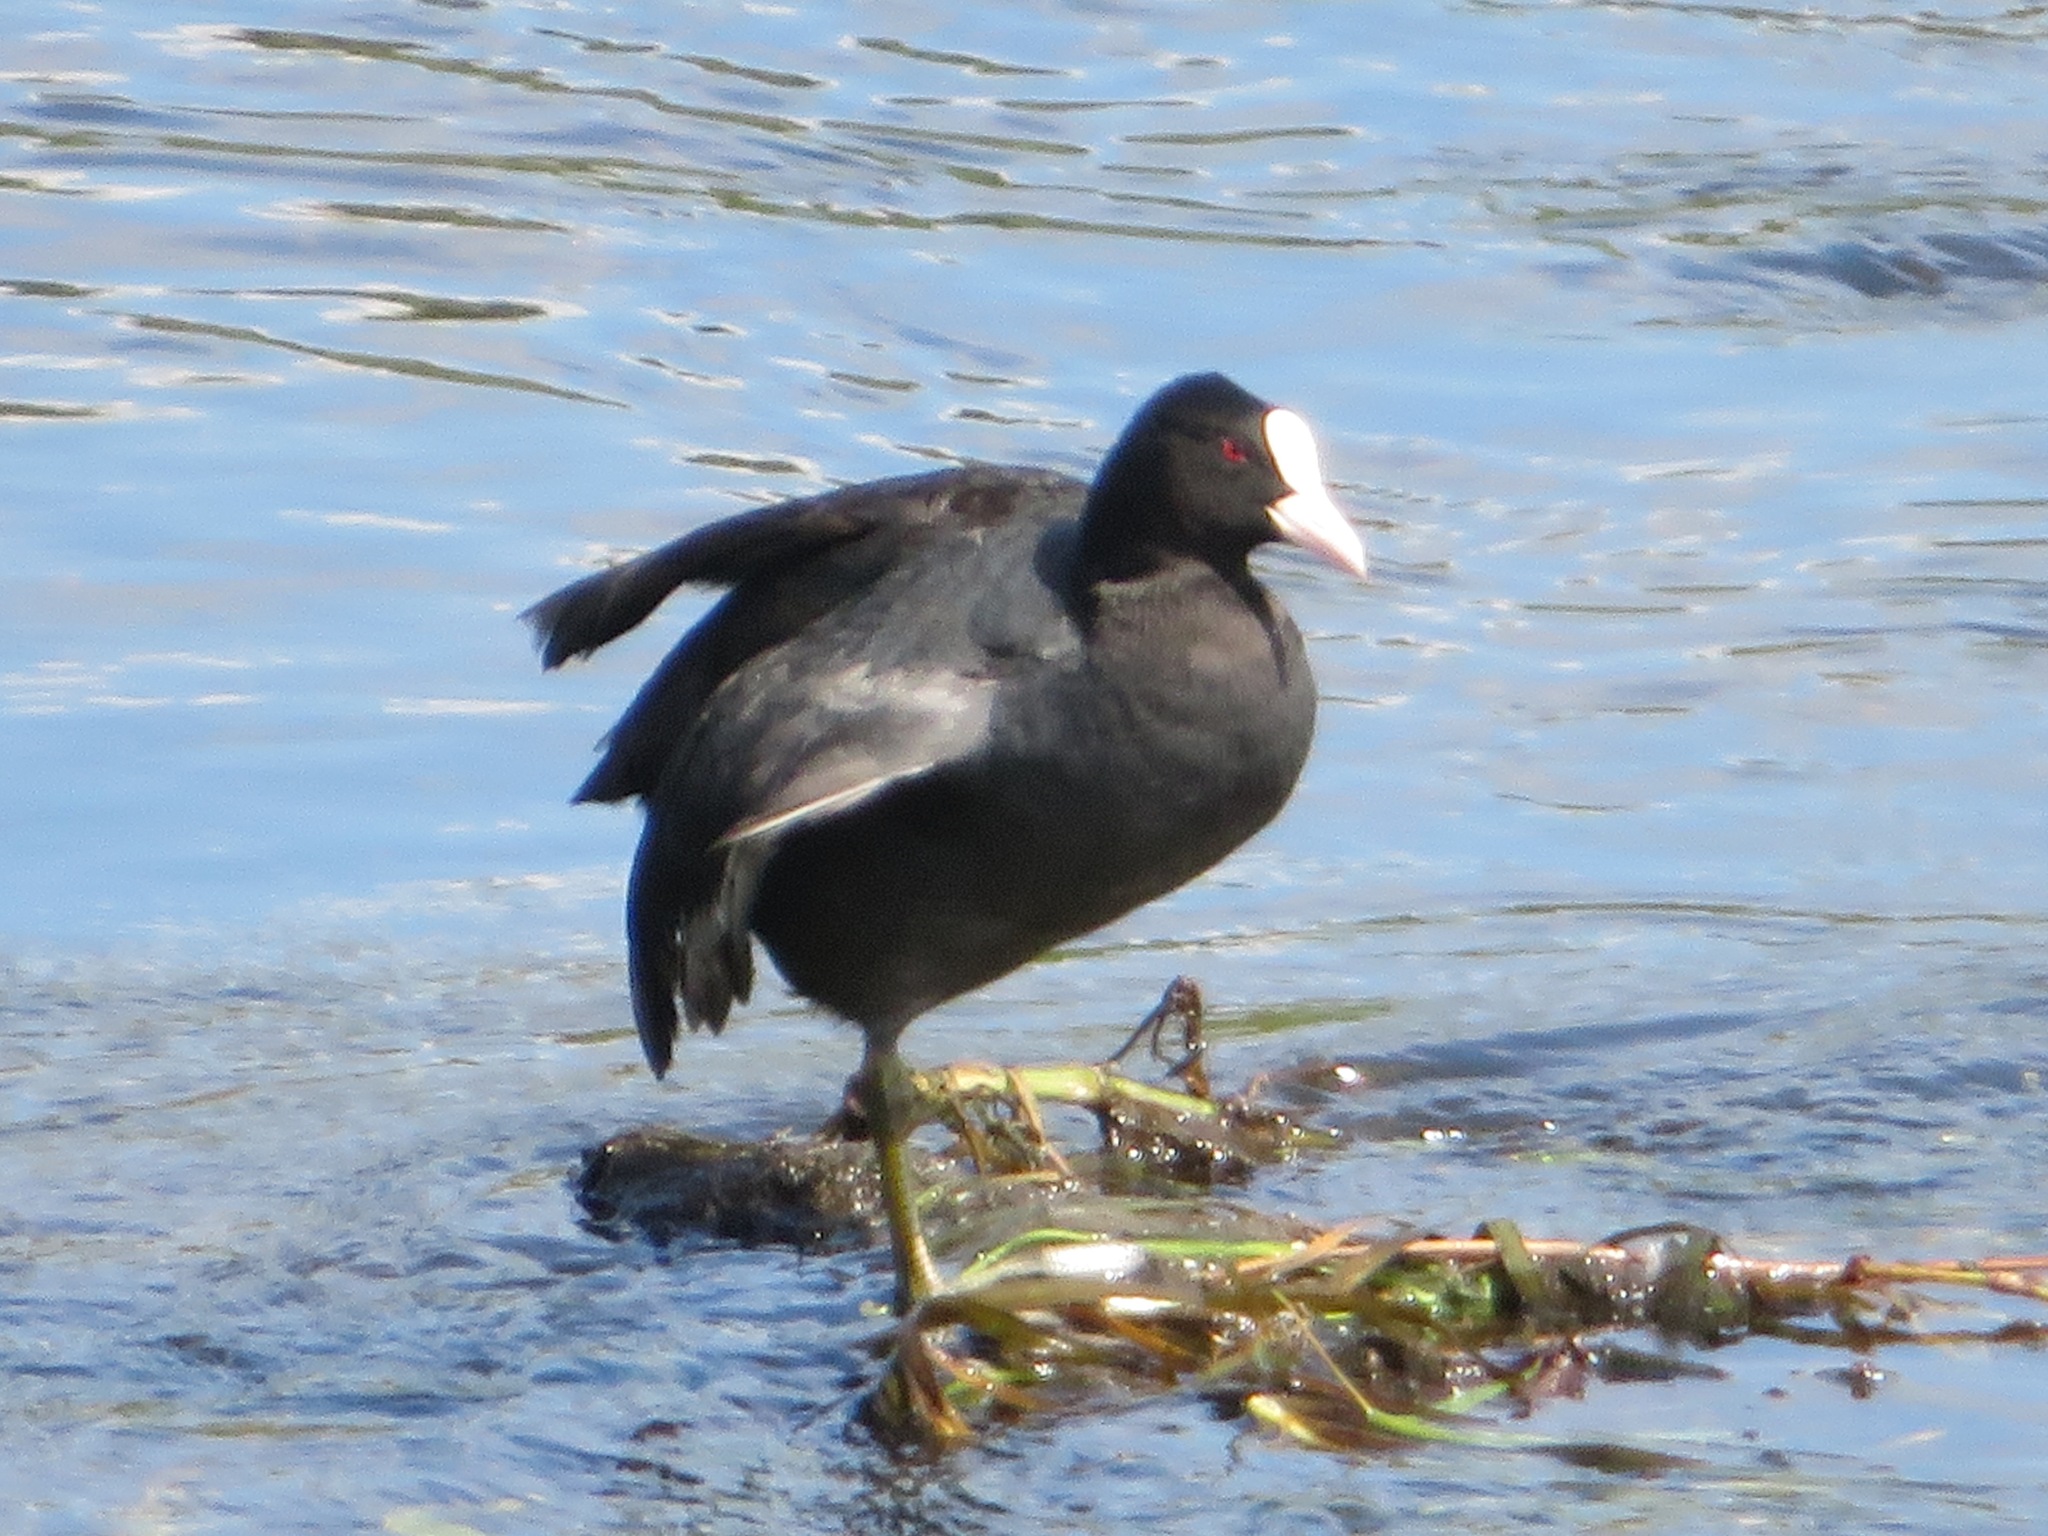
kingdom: Animalia
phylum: Chordata
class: Aves
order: Gruiformes
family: Rallidae
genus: Fulica
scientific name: Fulica atra
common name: Eurasian coot
